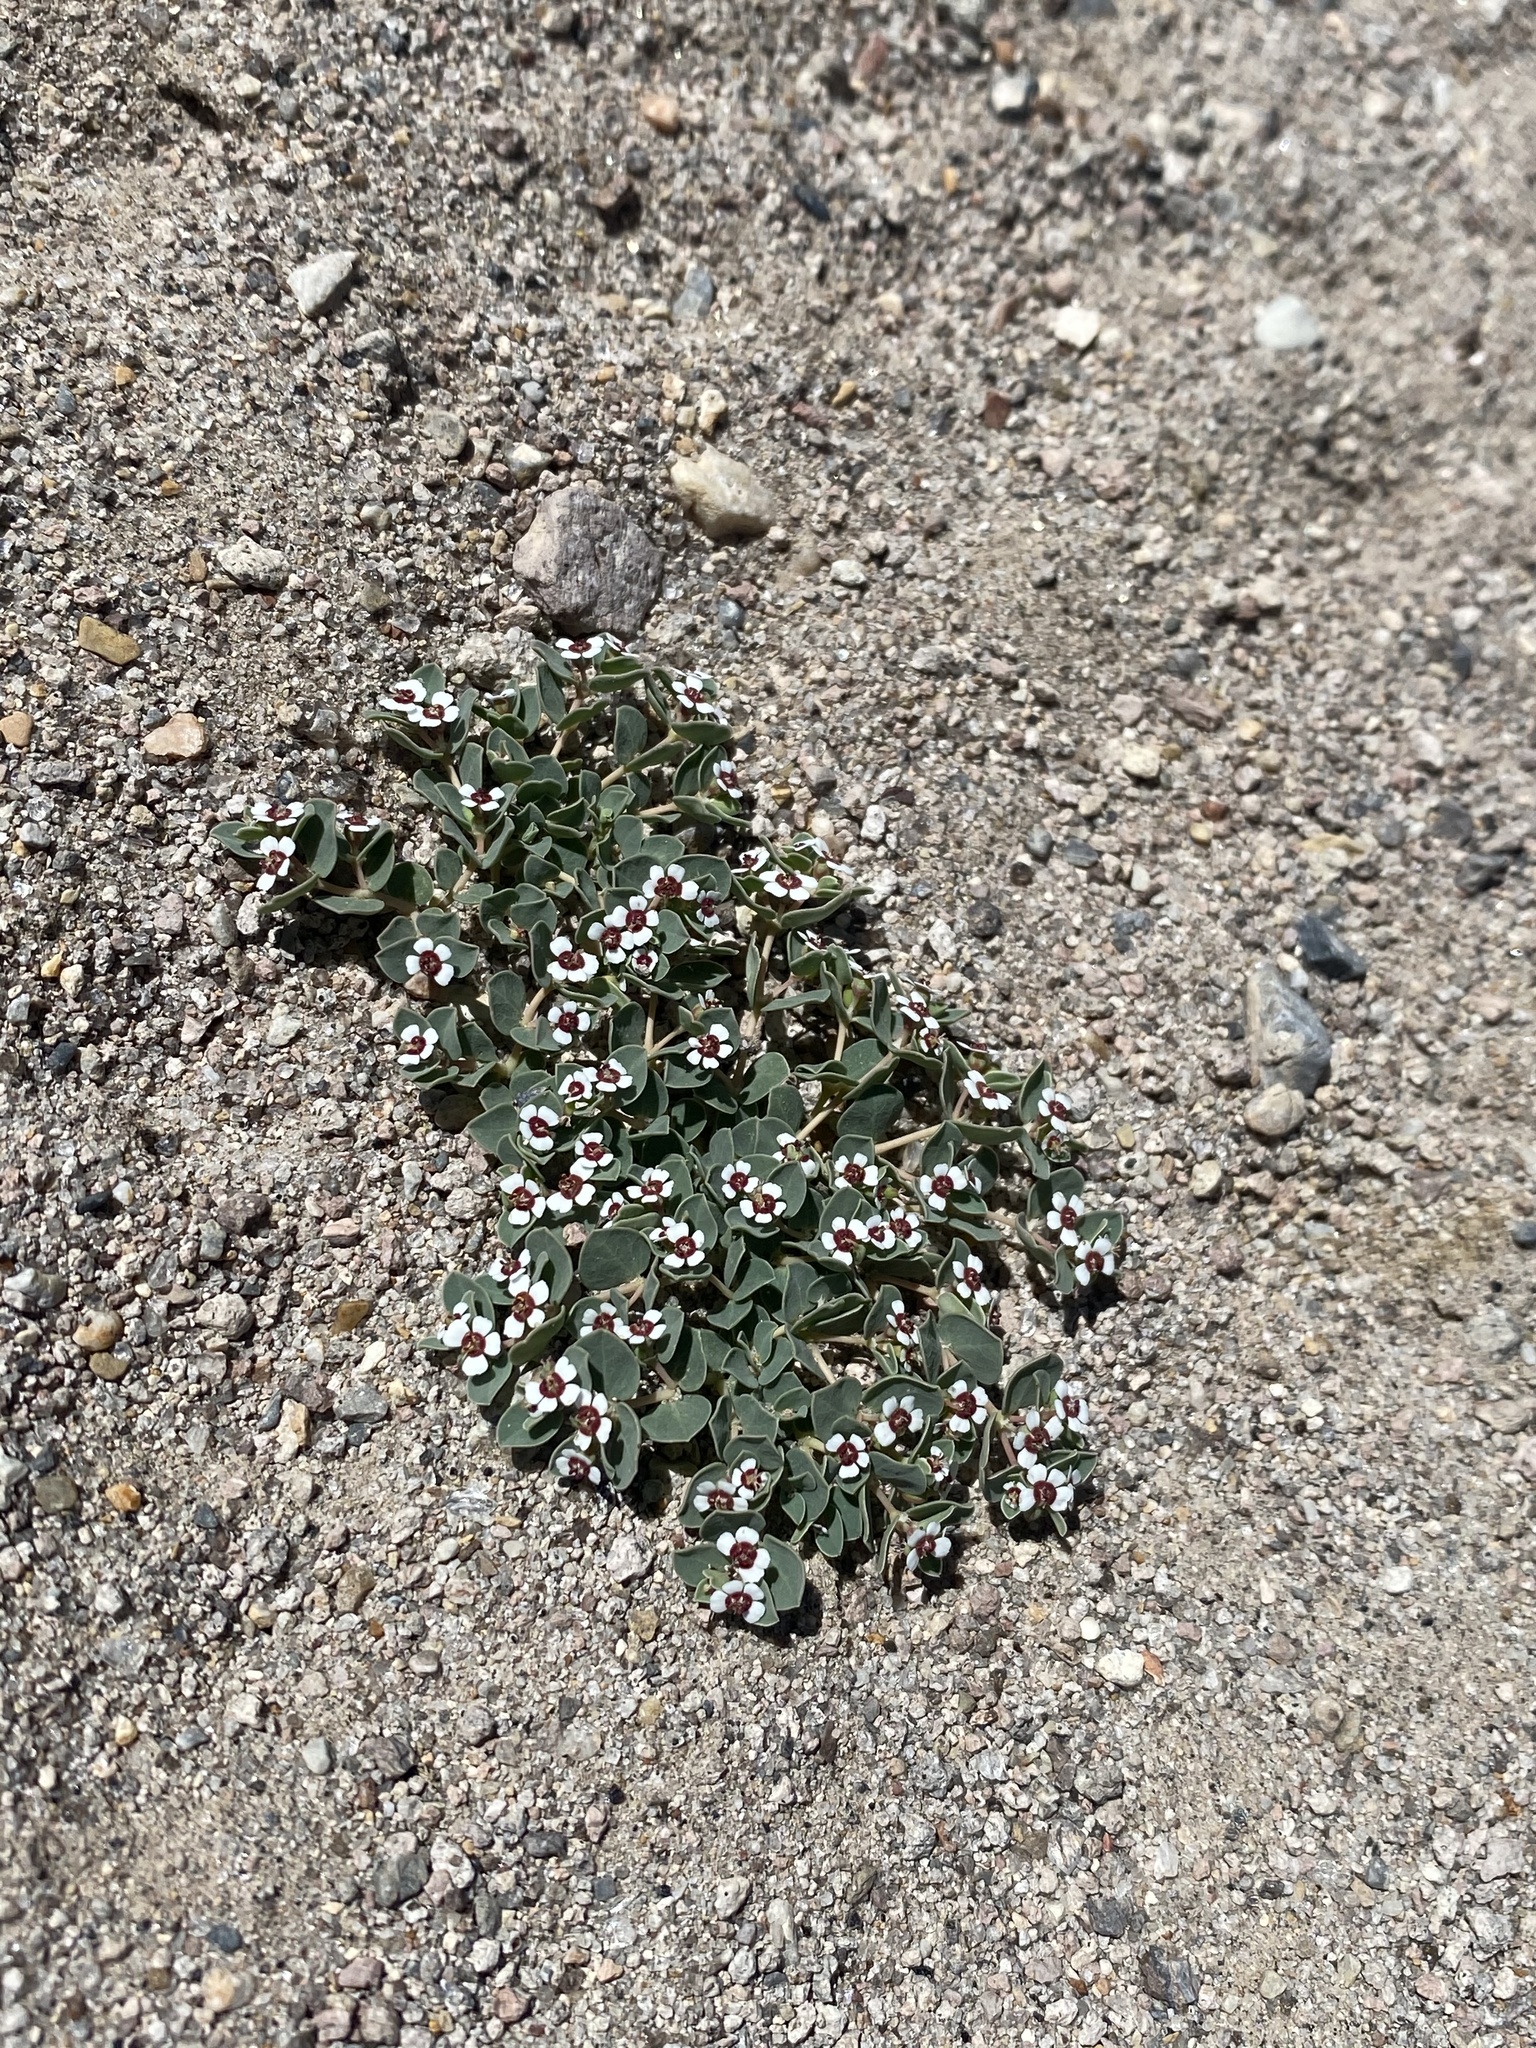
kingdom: Plantae
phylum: Tracheophyta
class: Magnoliopsida
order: Malpighiales
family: Euphorbiaceae
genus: Euphorbia
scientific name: Euphorbia albomarginata
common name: Whitemargin sandmat
